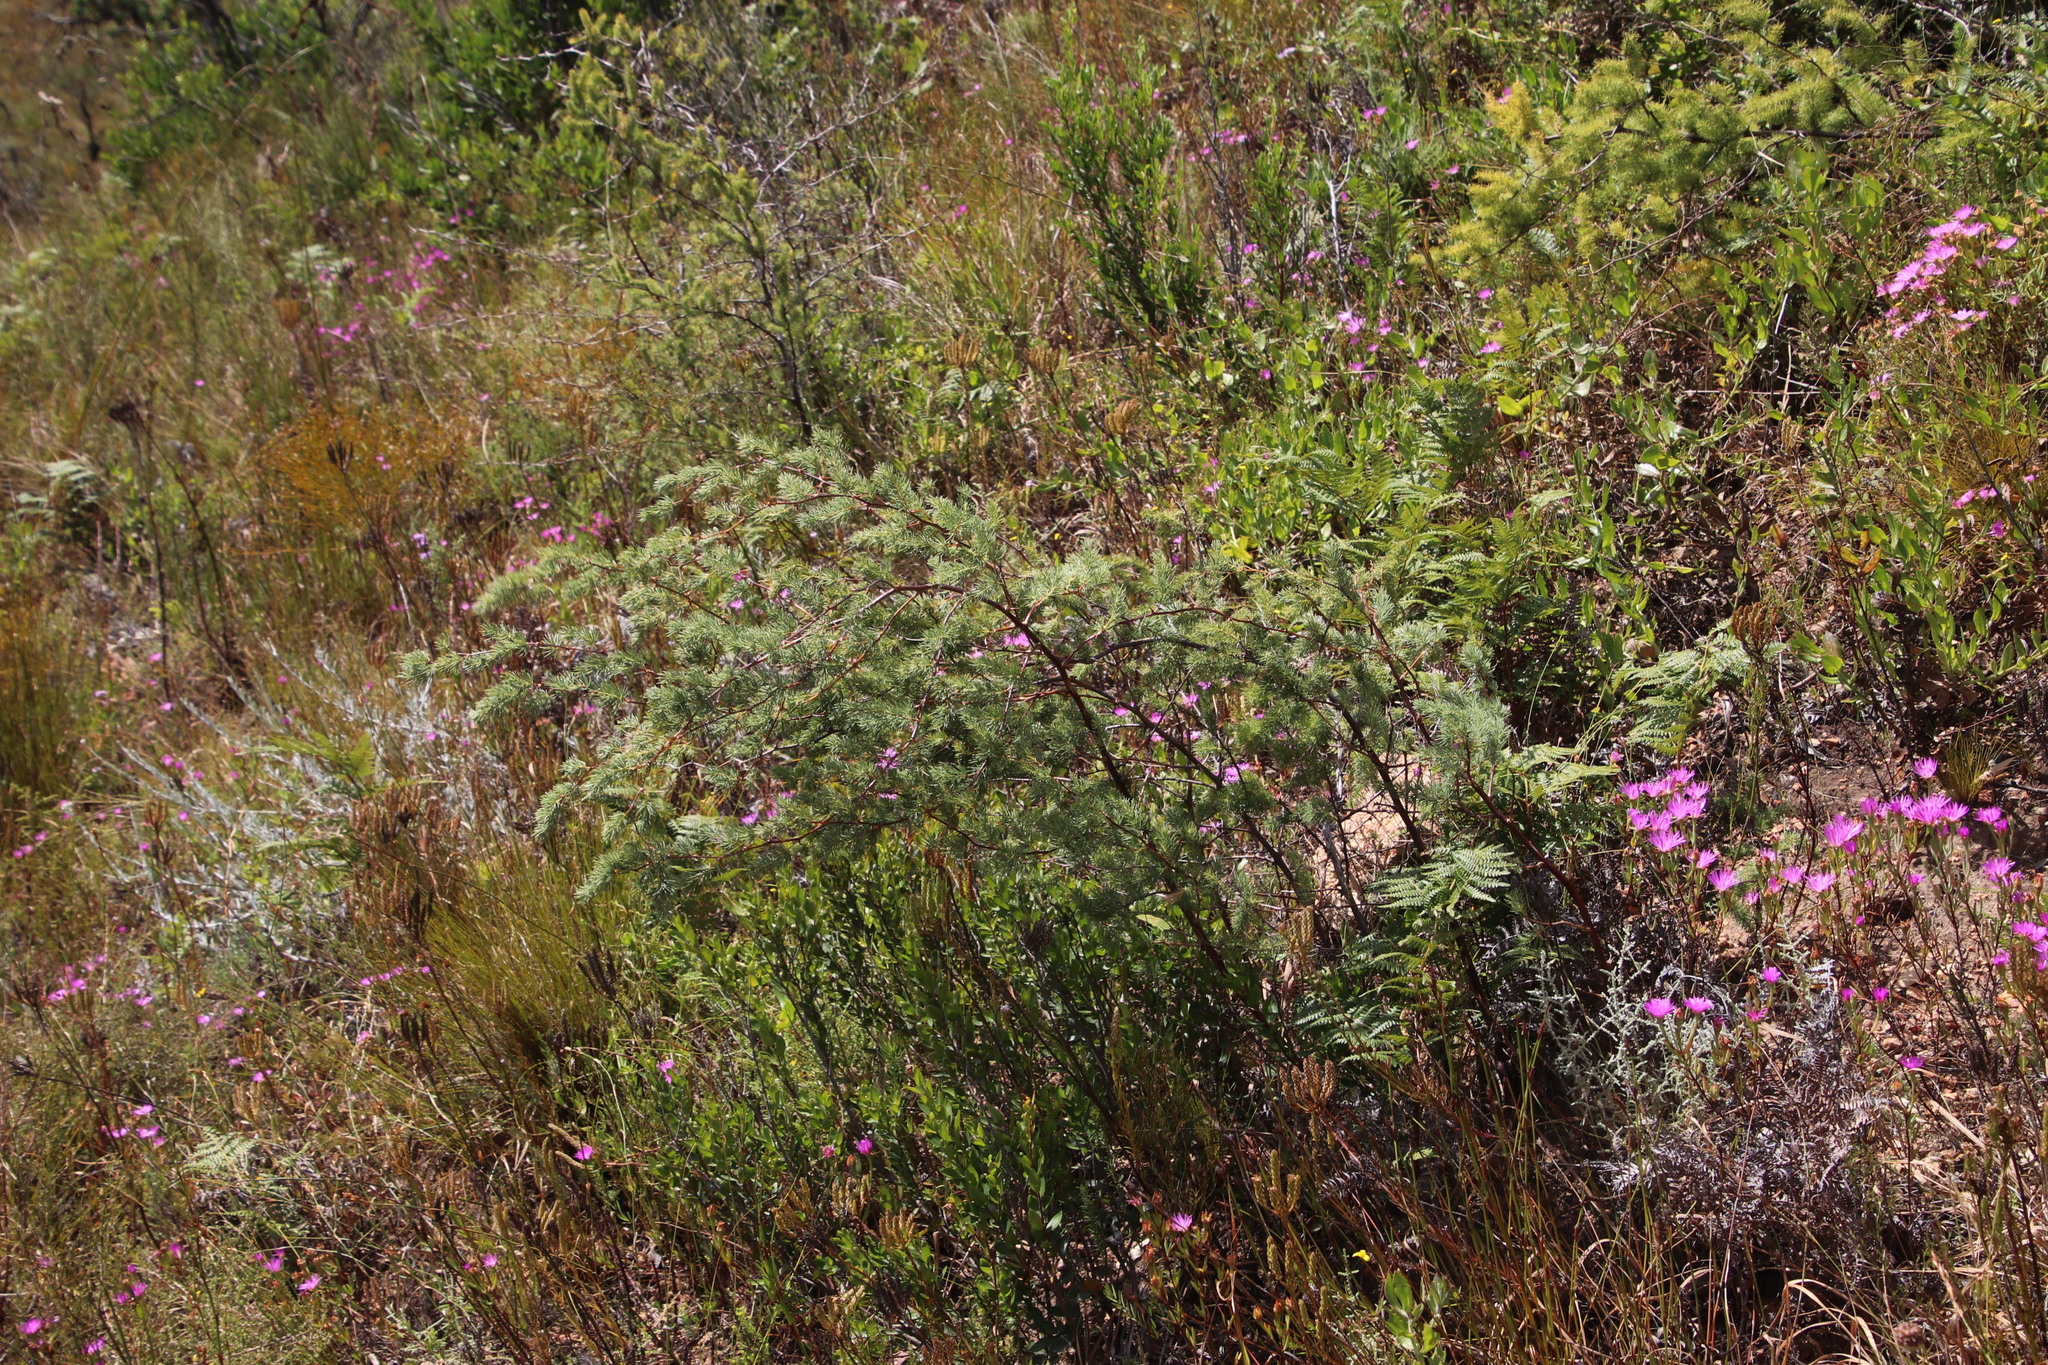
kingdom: Plantae
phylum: Tracheophyta
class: Liliopsida
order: Asparagales
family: Asparagaceae
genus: Asparagus
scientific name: Asparagus rubicundus
